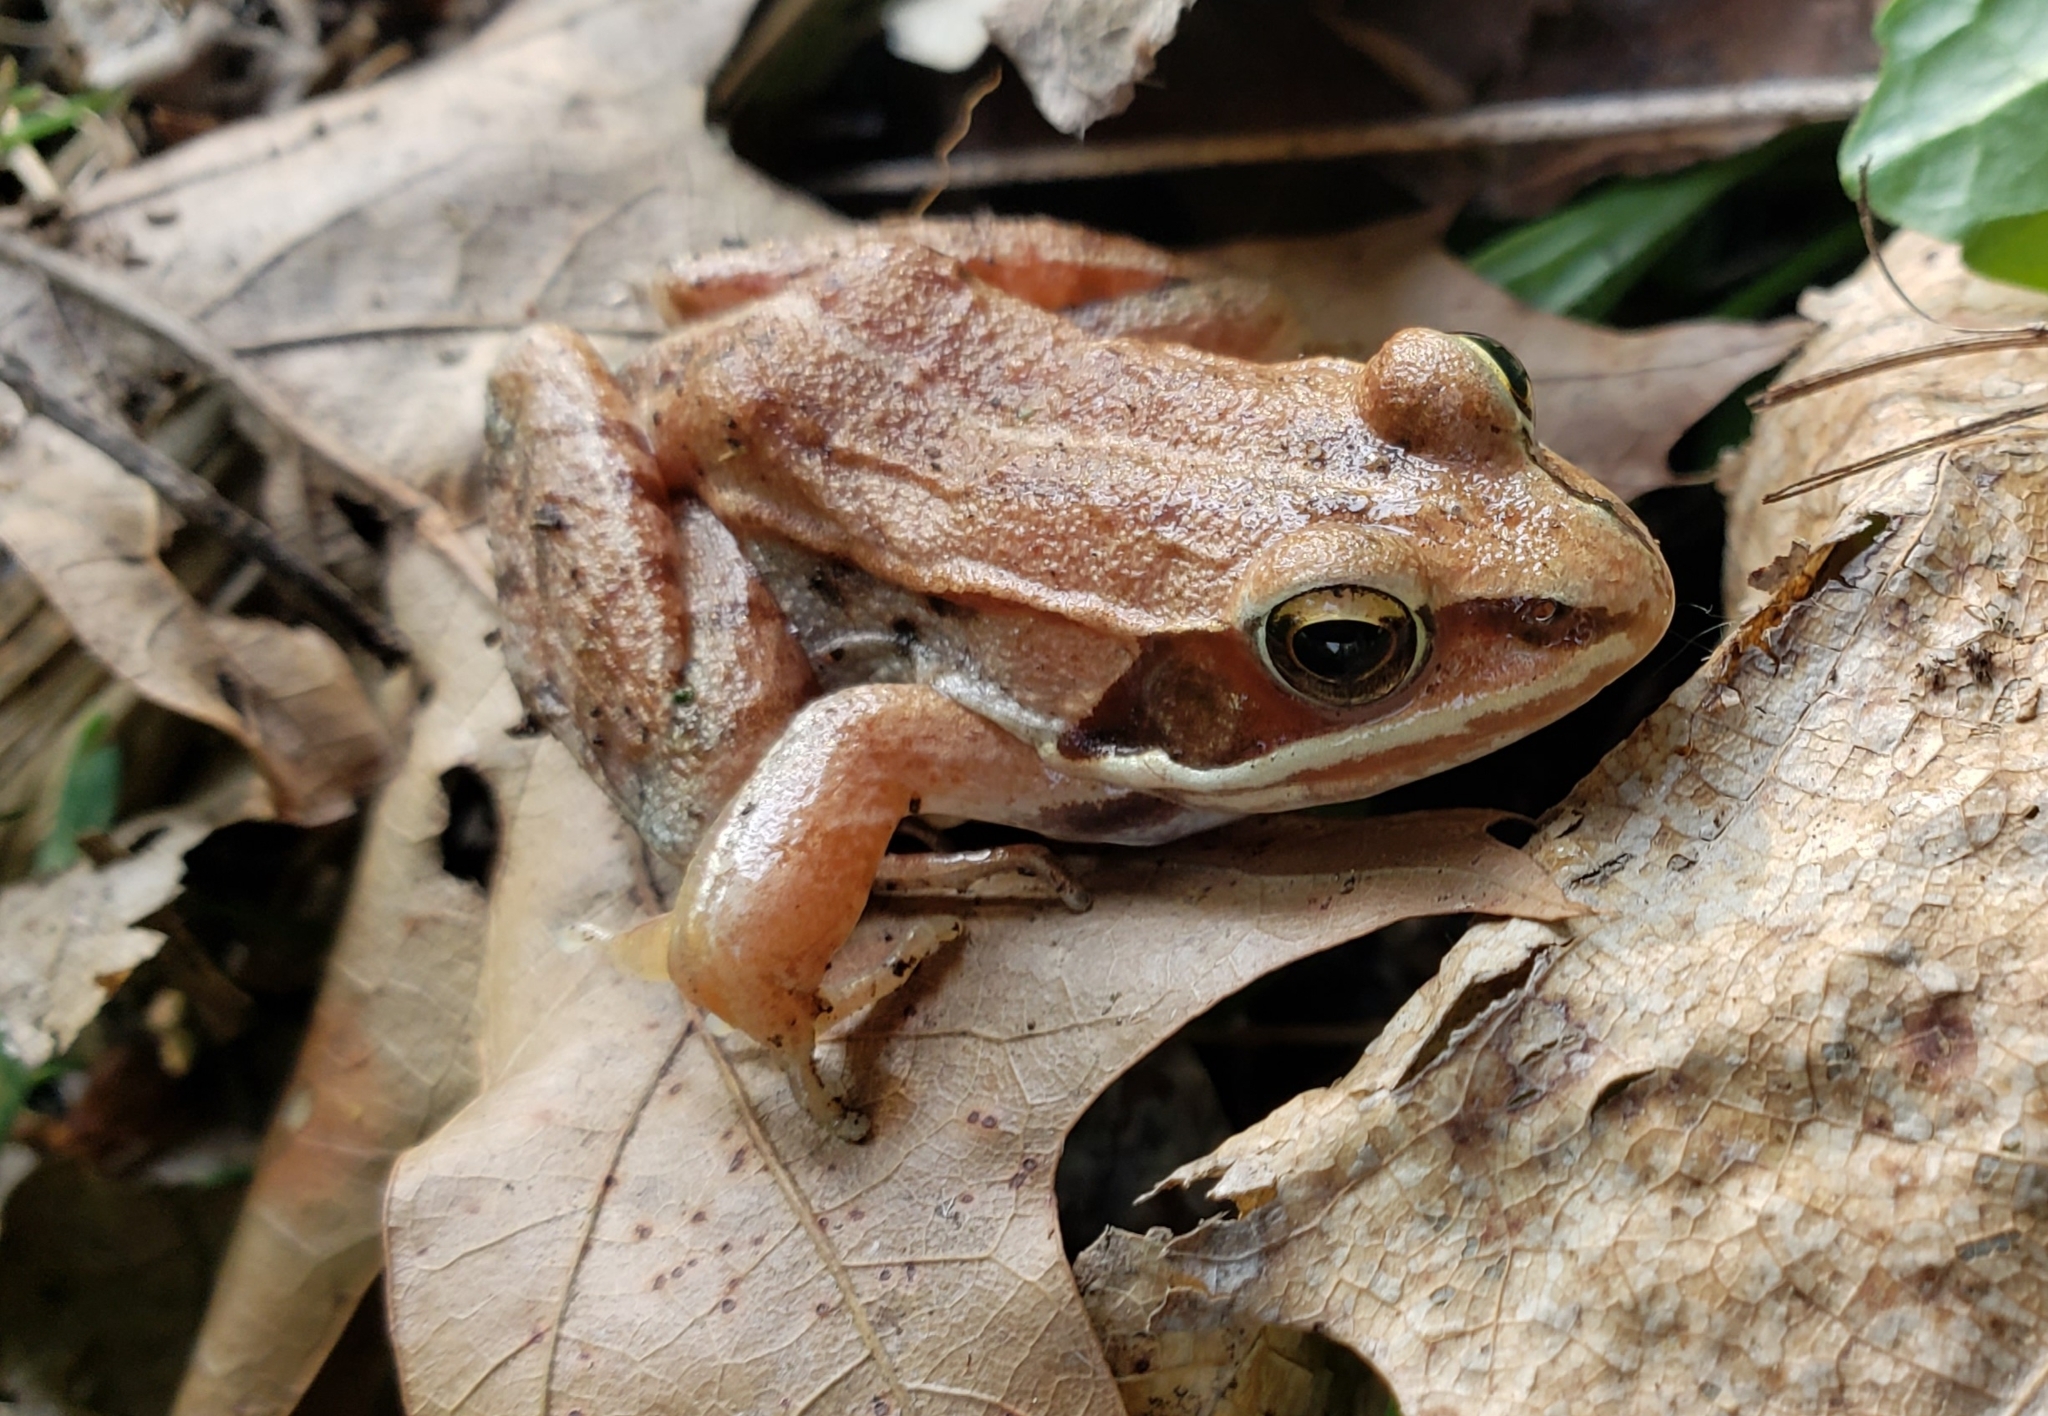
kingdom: Animalia
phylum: Chordata
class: Amphibia
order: Anura
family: Ranidae
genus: Lithobates
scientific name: Lithobates sylvaticus
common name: Wood frog
